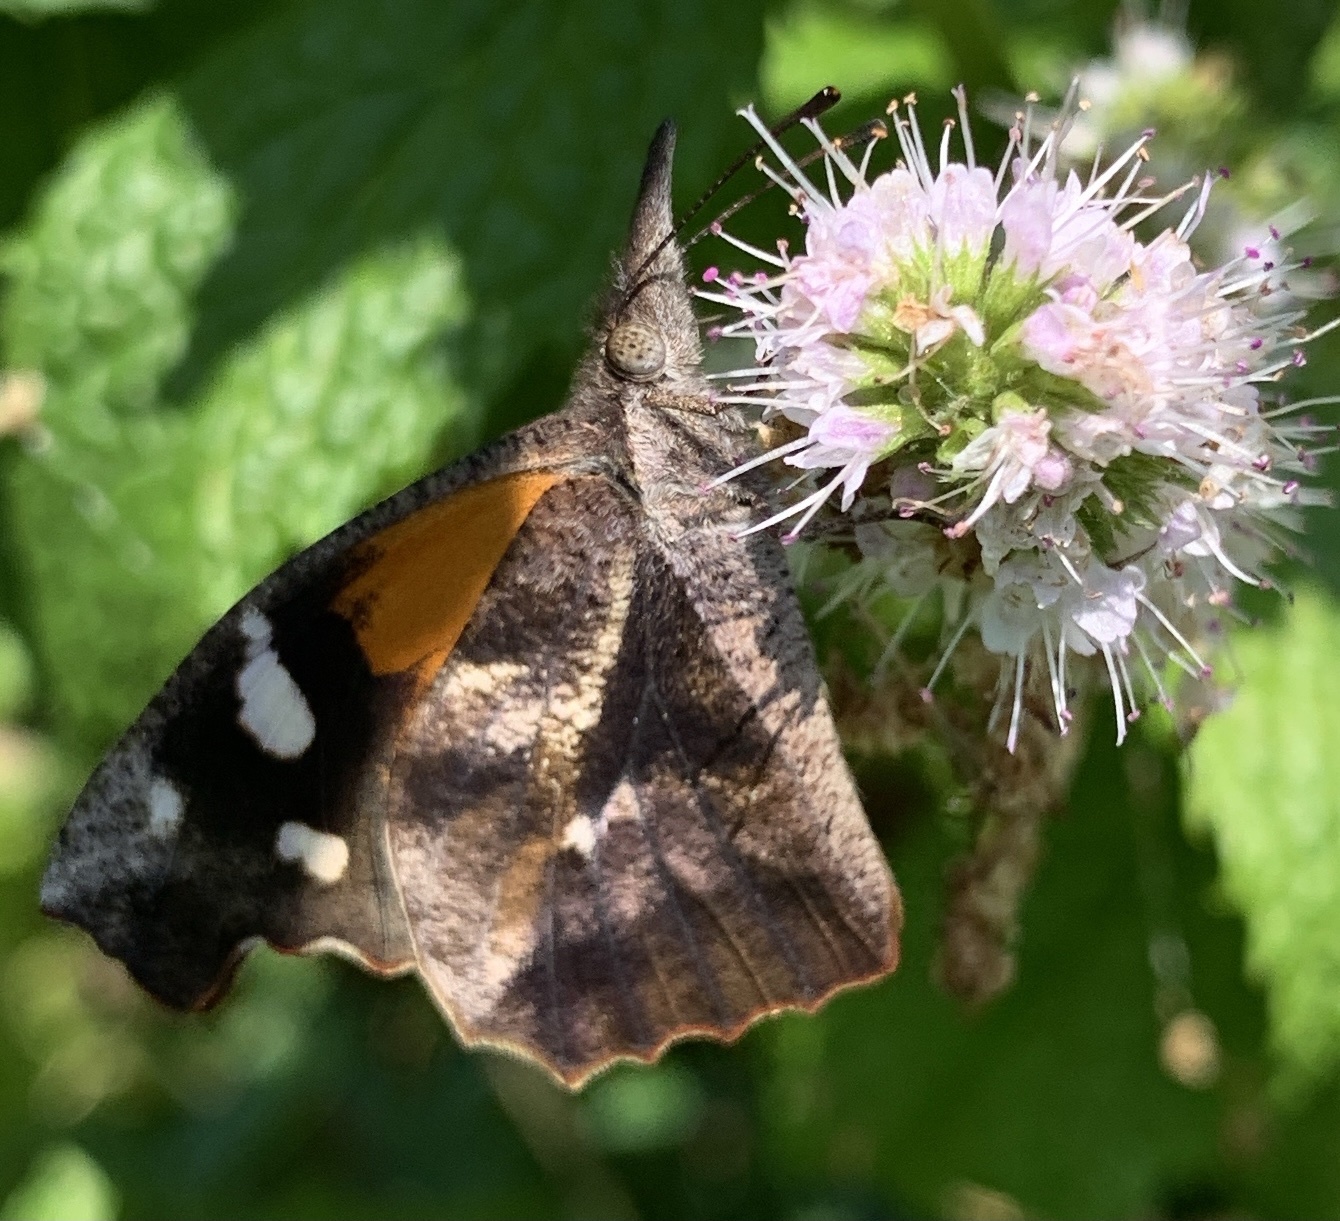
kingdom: Animalia
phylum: Arthropoda
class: Insecta
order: Lepidoptera
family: Nymphalidae
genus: Libytheana
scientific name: Libytheana carinenta
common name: American snout
